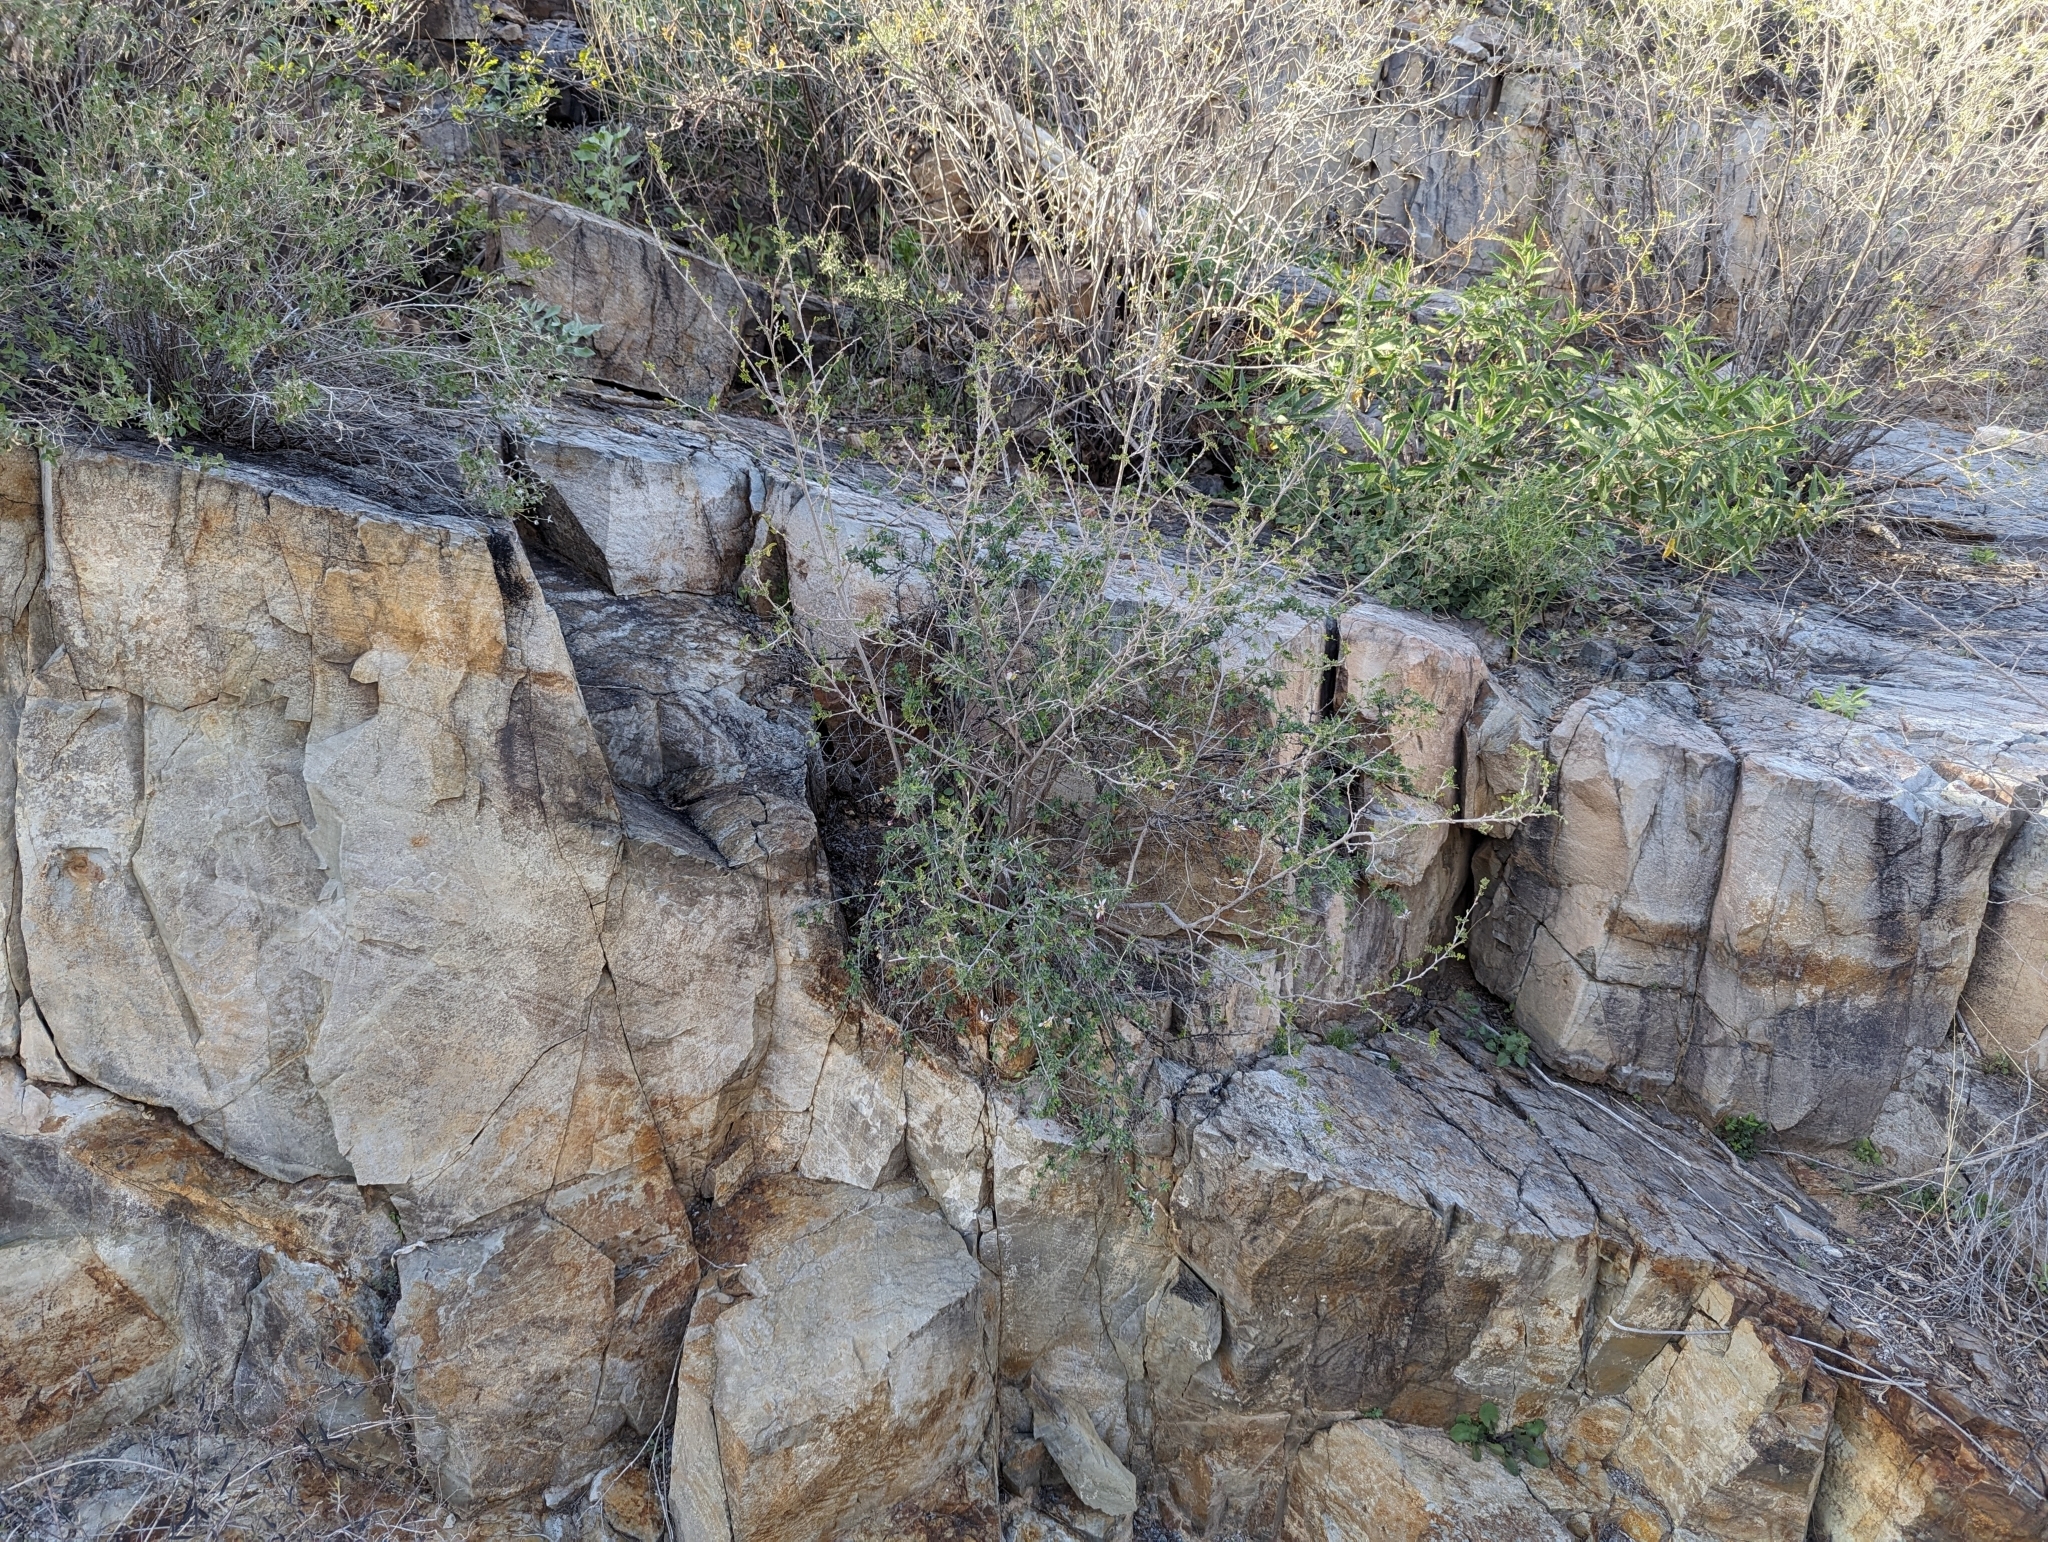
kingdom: Plantae
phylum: Tracheophyta
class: Magnoliopsida
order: Crossosomatales
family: Crossosomataceae
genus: Crossosoma
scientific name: Crossosoma bigelovii
